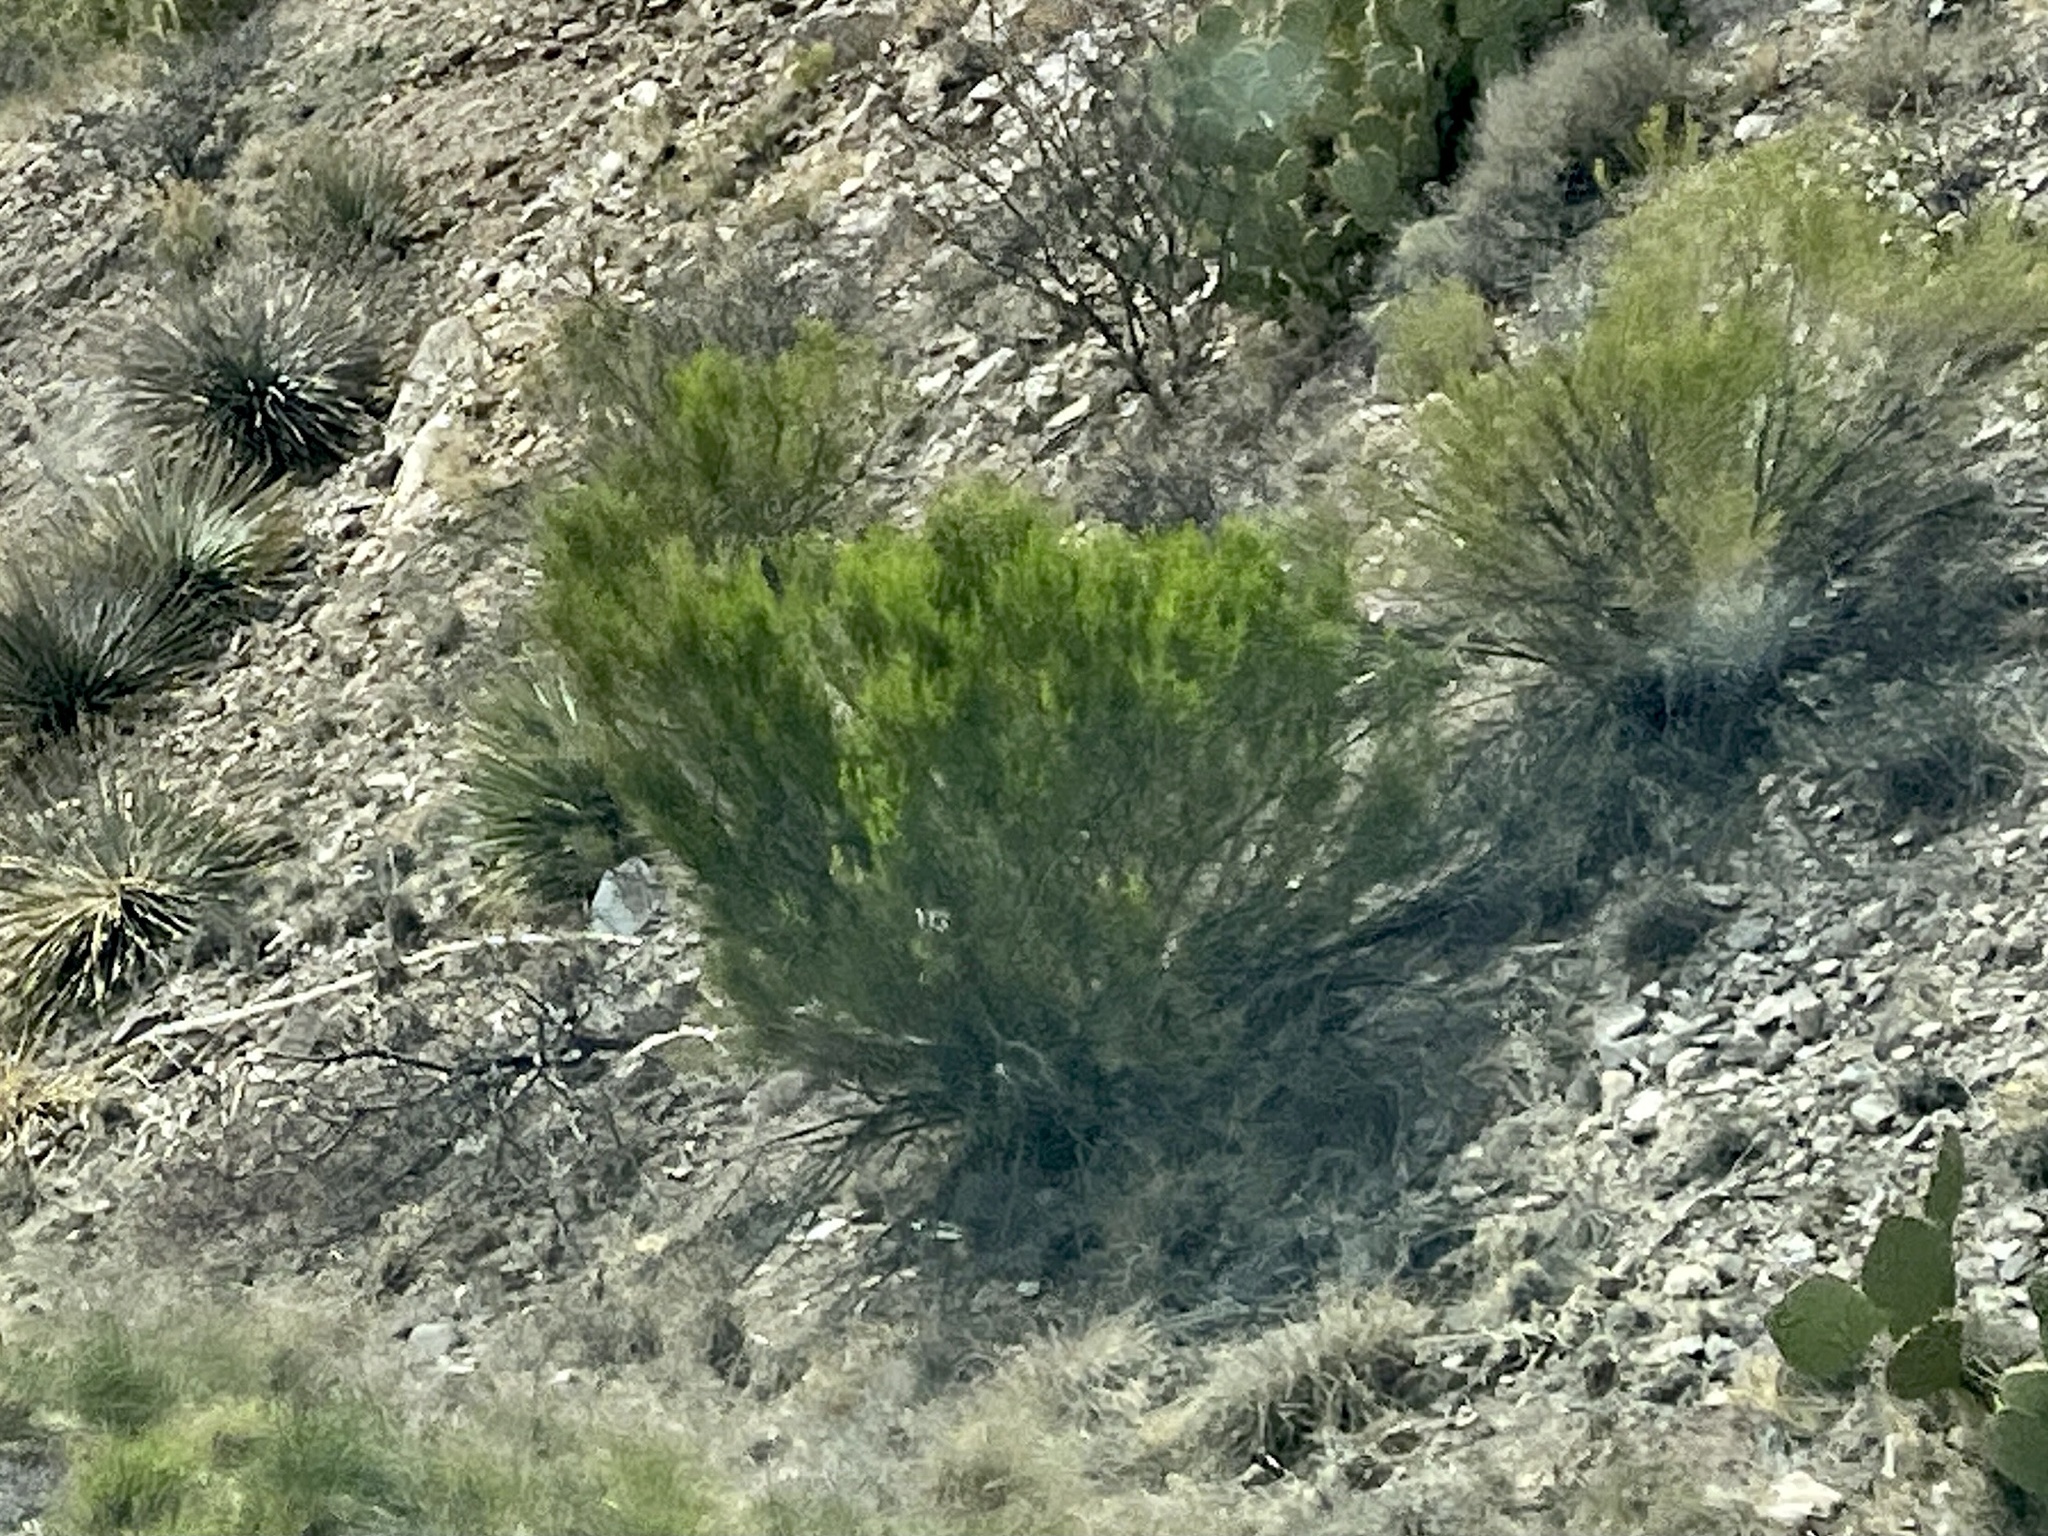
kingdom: Plantae
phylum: Tracheophyta
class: Magnoliopsida
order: Asterales
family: Asteraceae
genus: Baccharis
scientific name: Baccharis sarothroides
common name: Desert-broom
